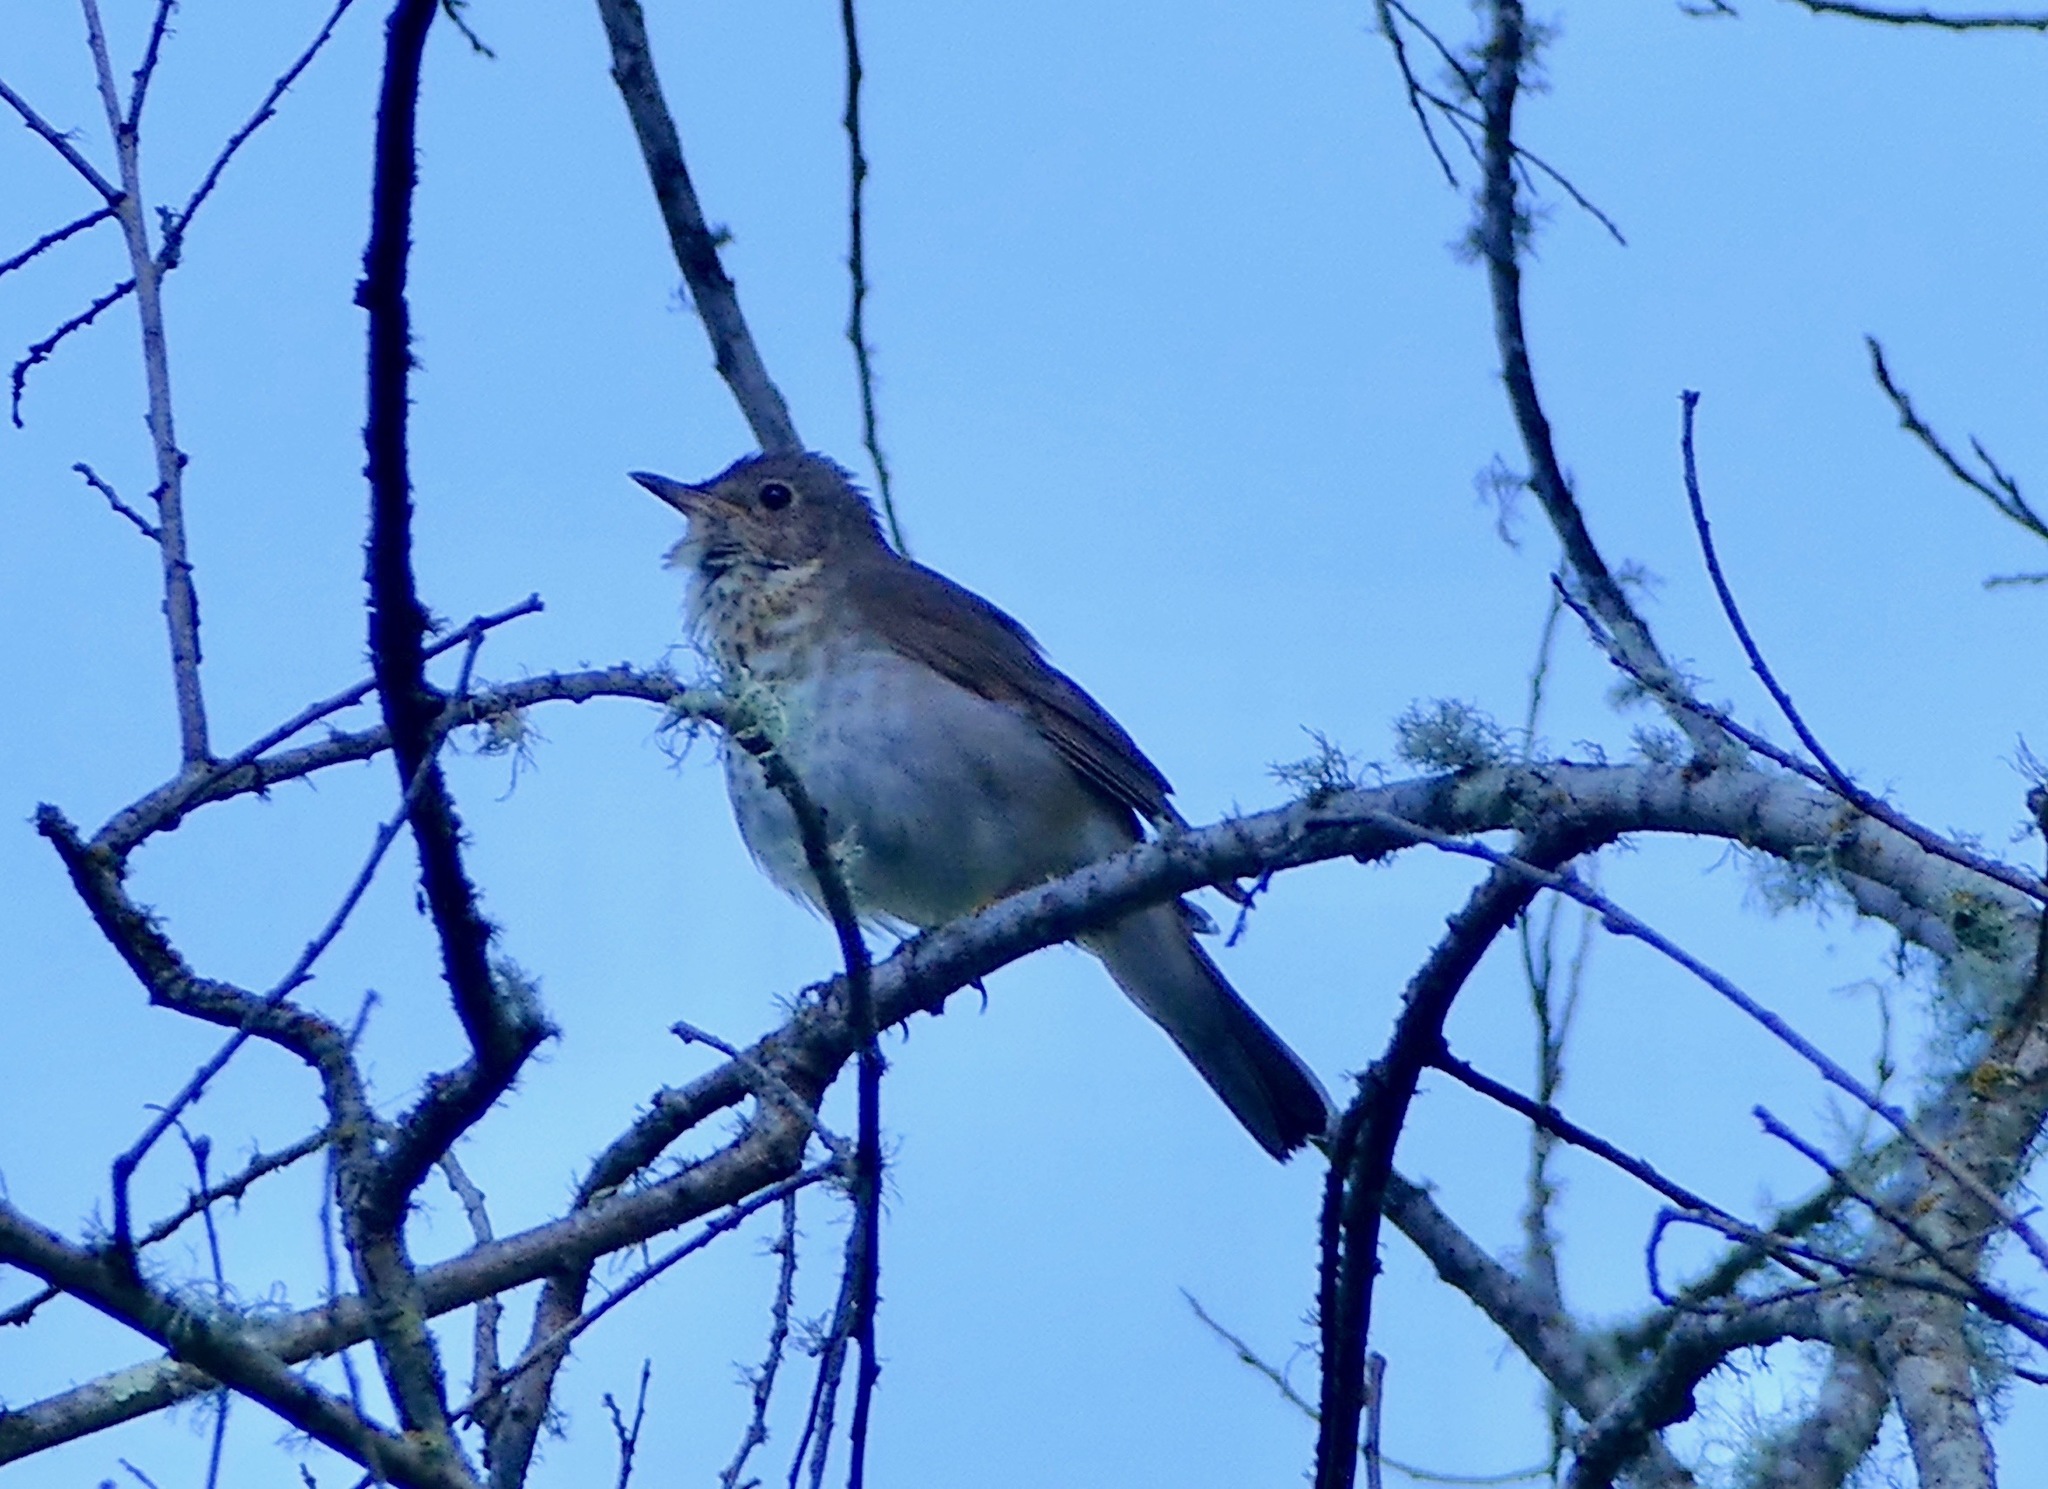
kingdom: Animalia
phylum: Chordata
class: Aves
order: Passeriformes
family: Turdidae
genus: Catharus
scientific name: Catharus ustulatus
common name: Swainson's thrush
